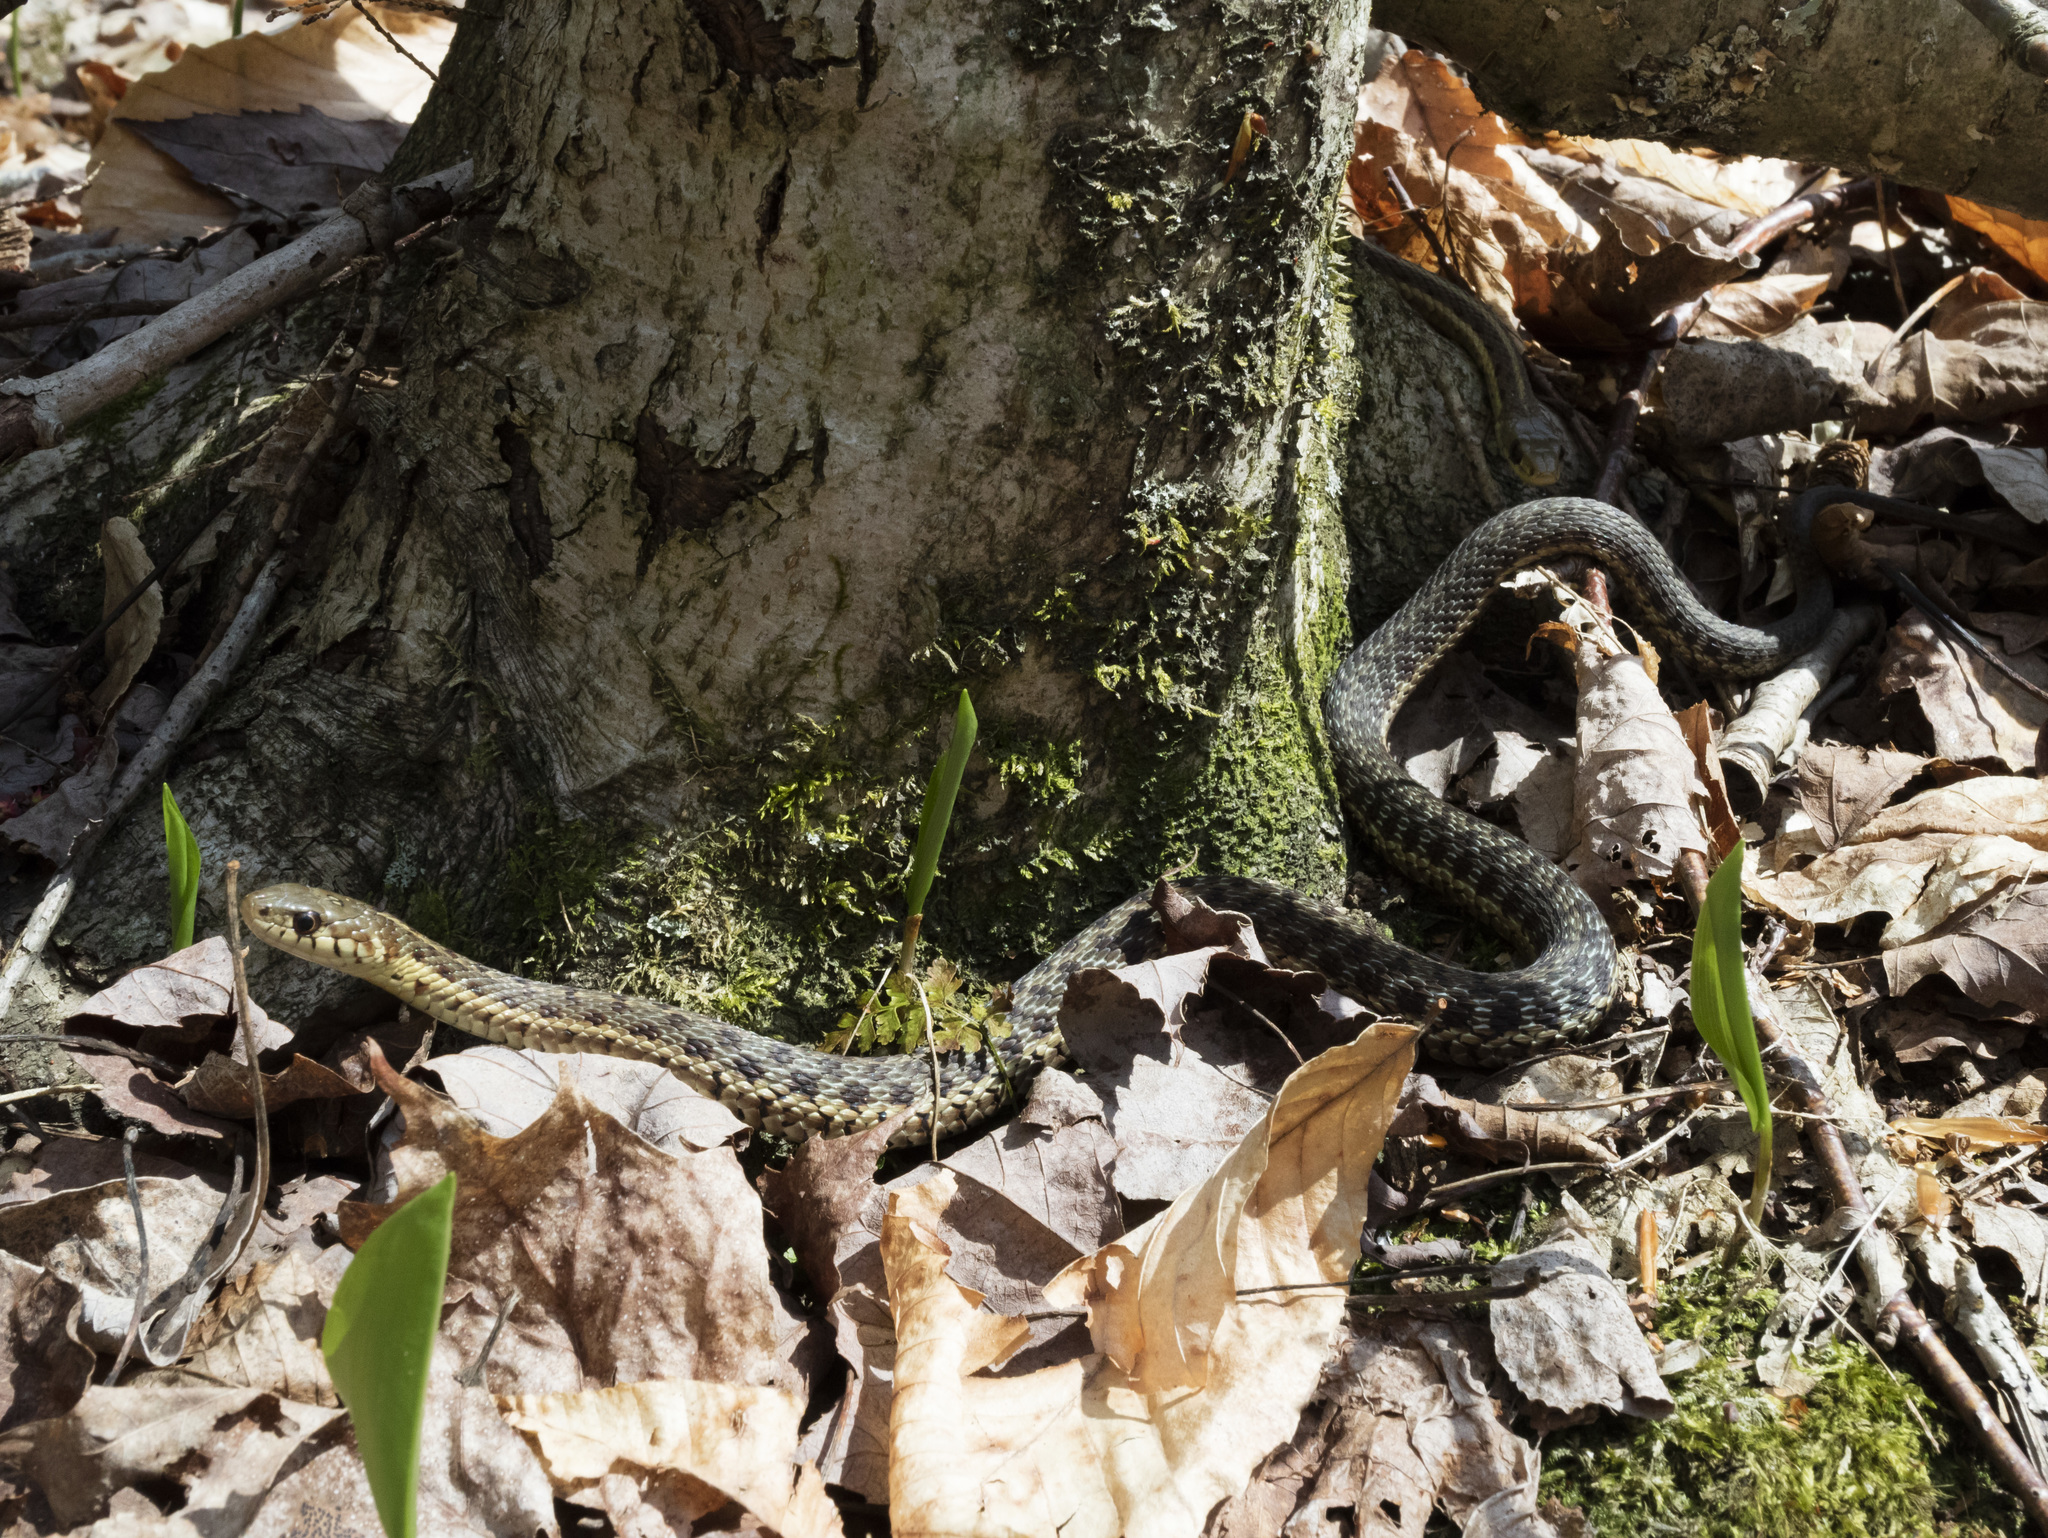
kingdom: Animalia
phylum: Chordata
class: Squamata
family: Colubridae
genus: Thamnophis
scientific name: Thamnophis sirtalis
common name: Common garter snake
